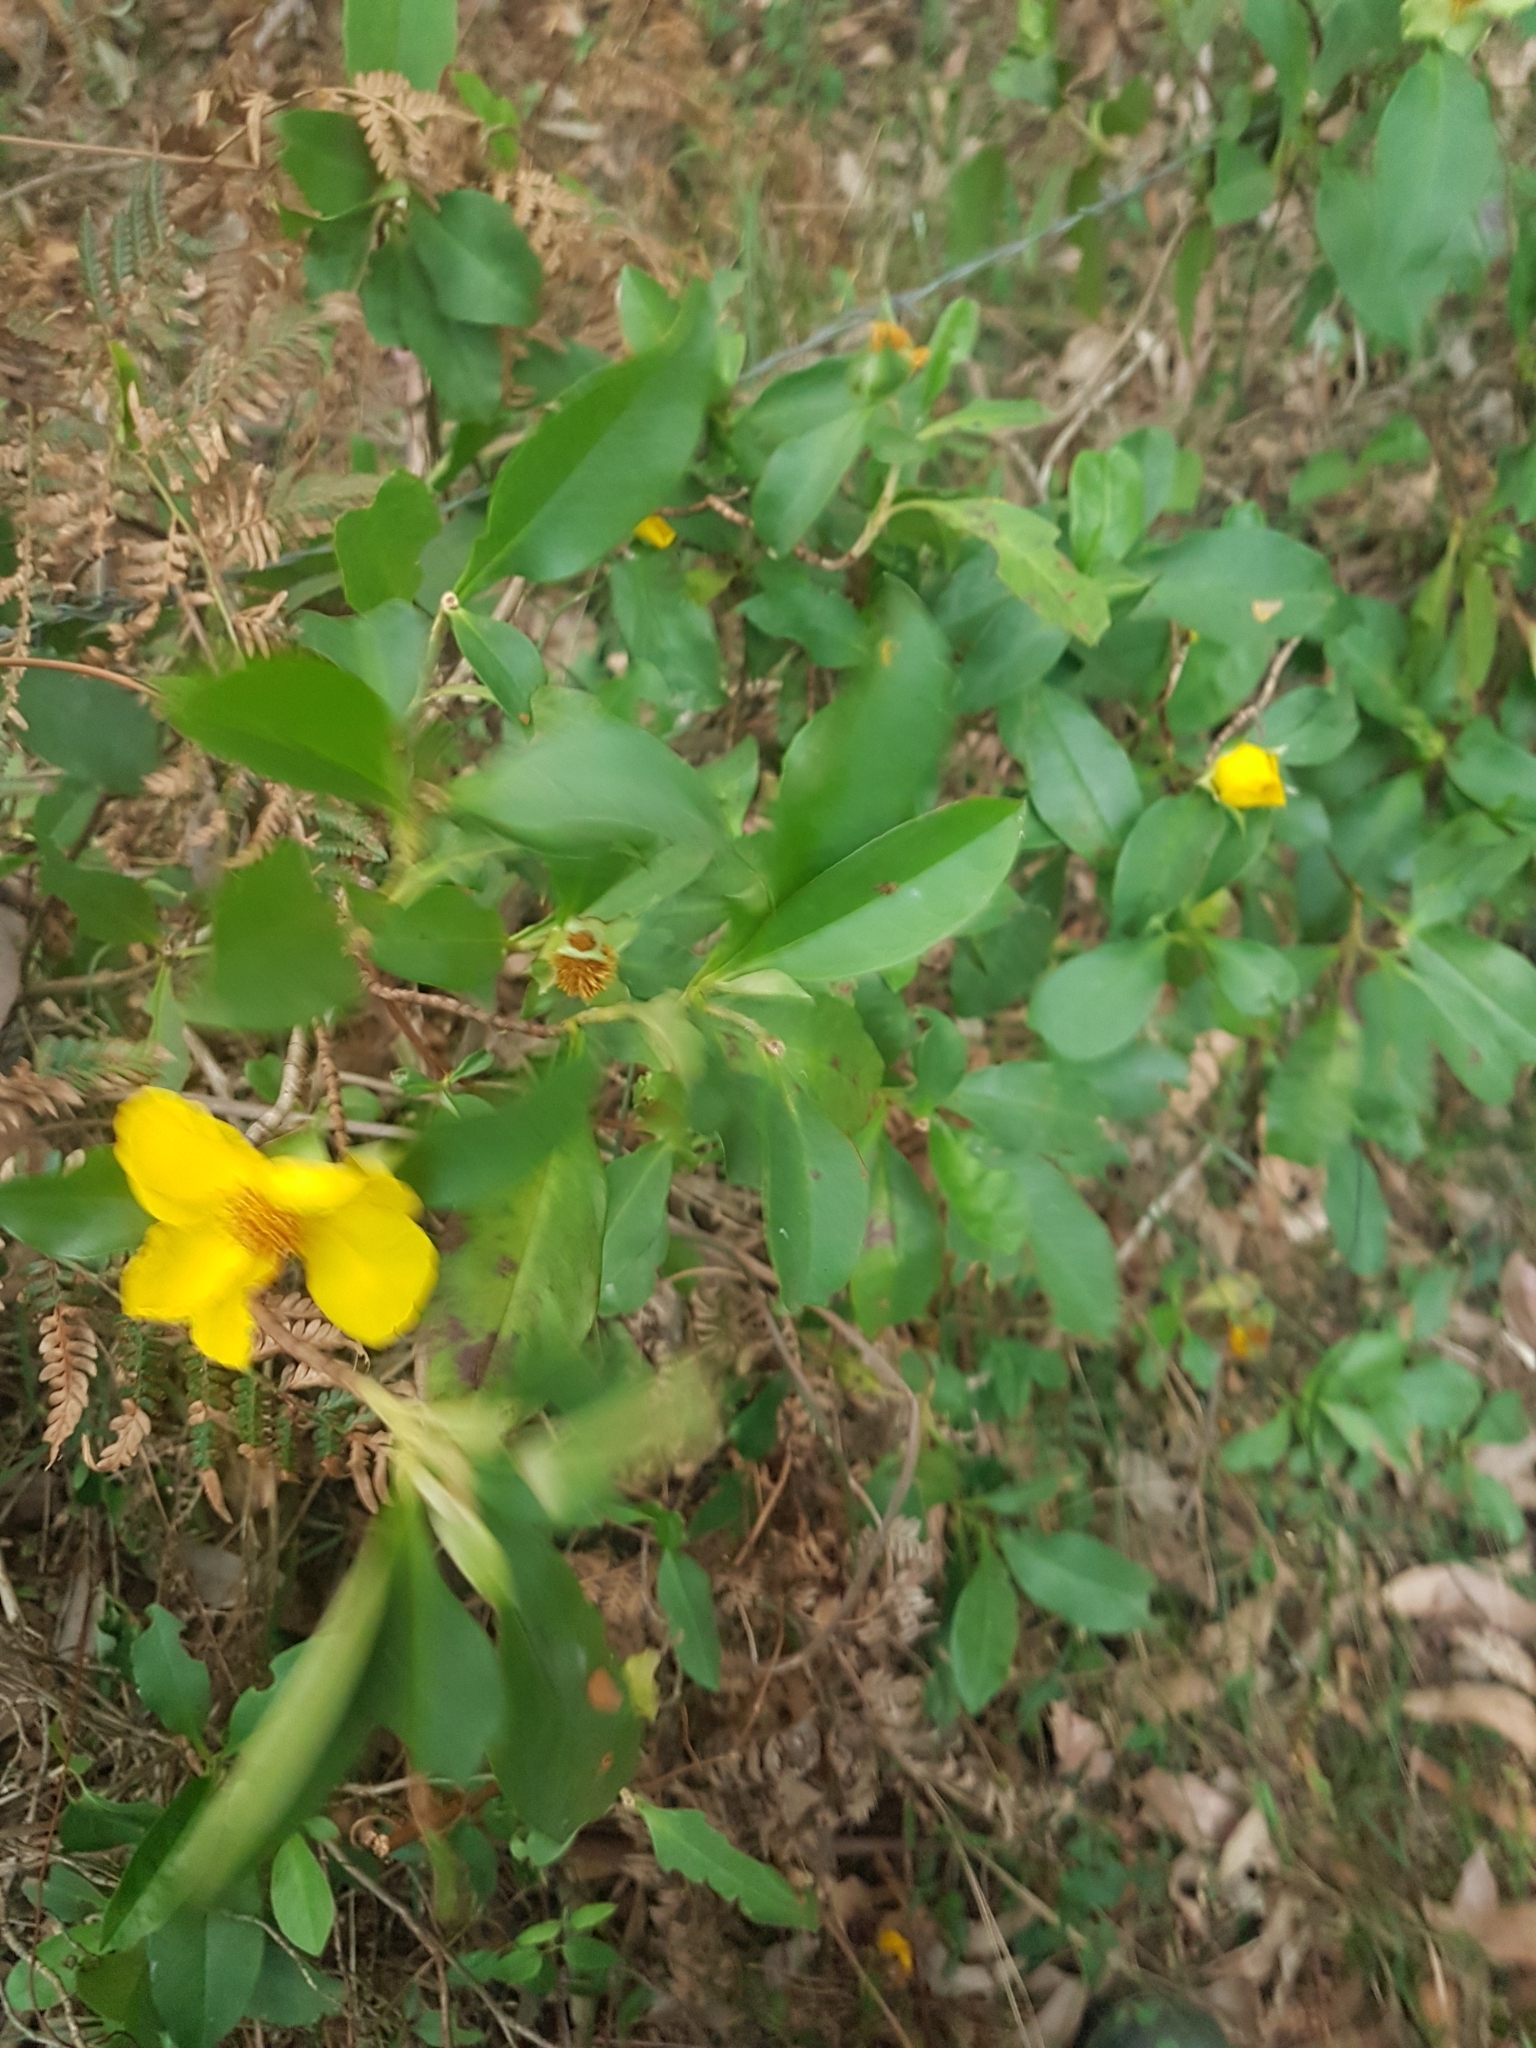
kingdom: Plantae
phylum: Tracheophyta
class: Magnoliopsida
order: Dilleniales
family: Dilleniaceae
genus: Hibbertia
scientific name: Hibbertia scandens
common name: Climbing guinea-flower
